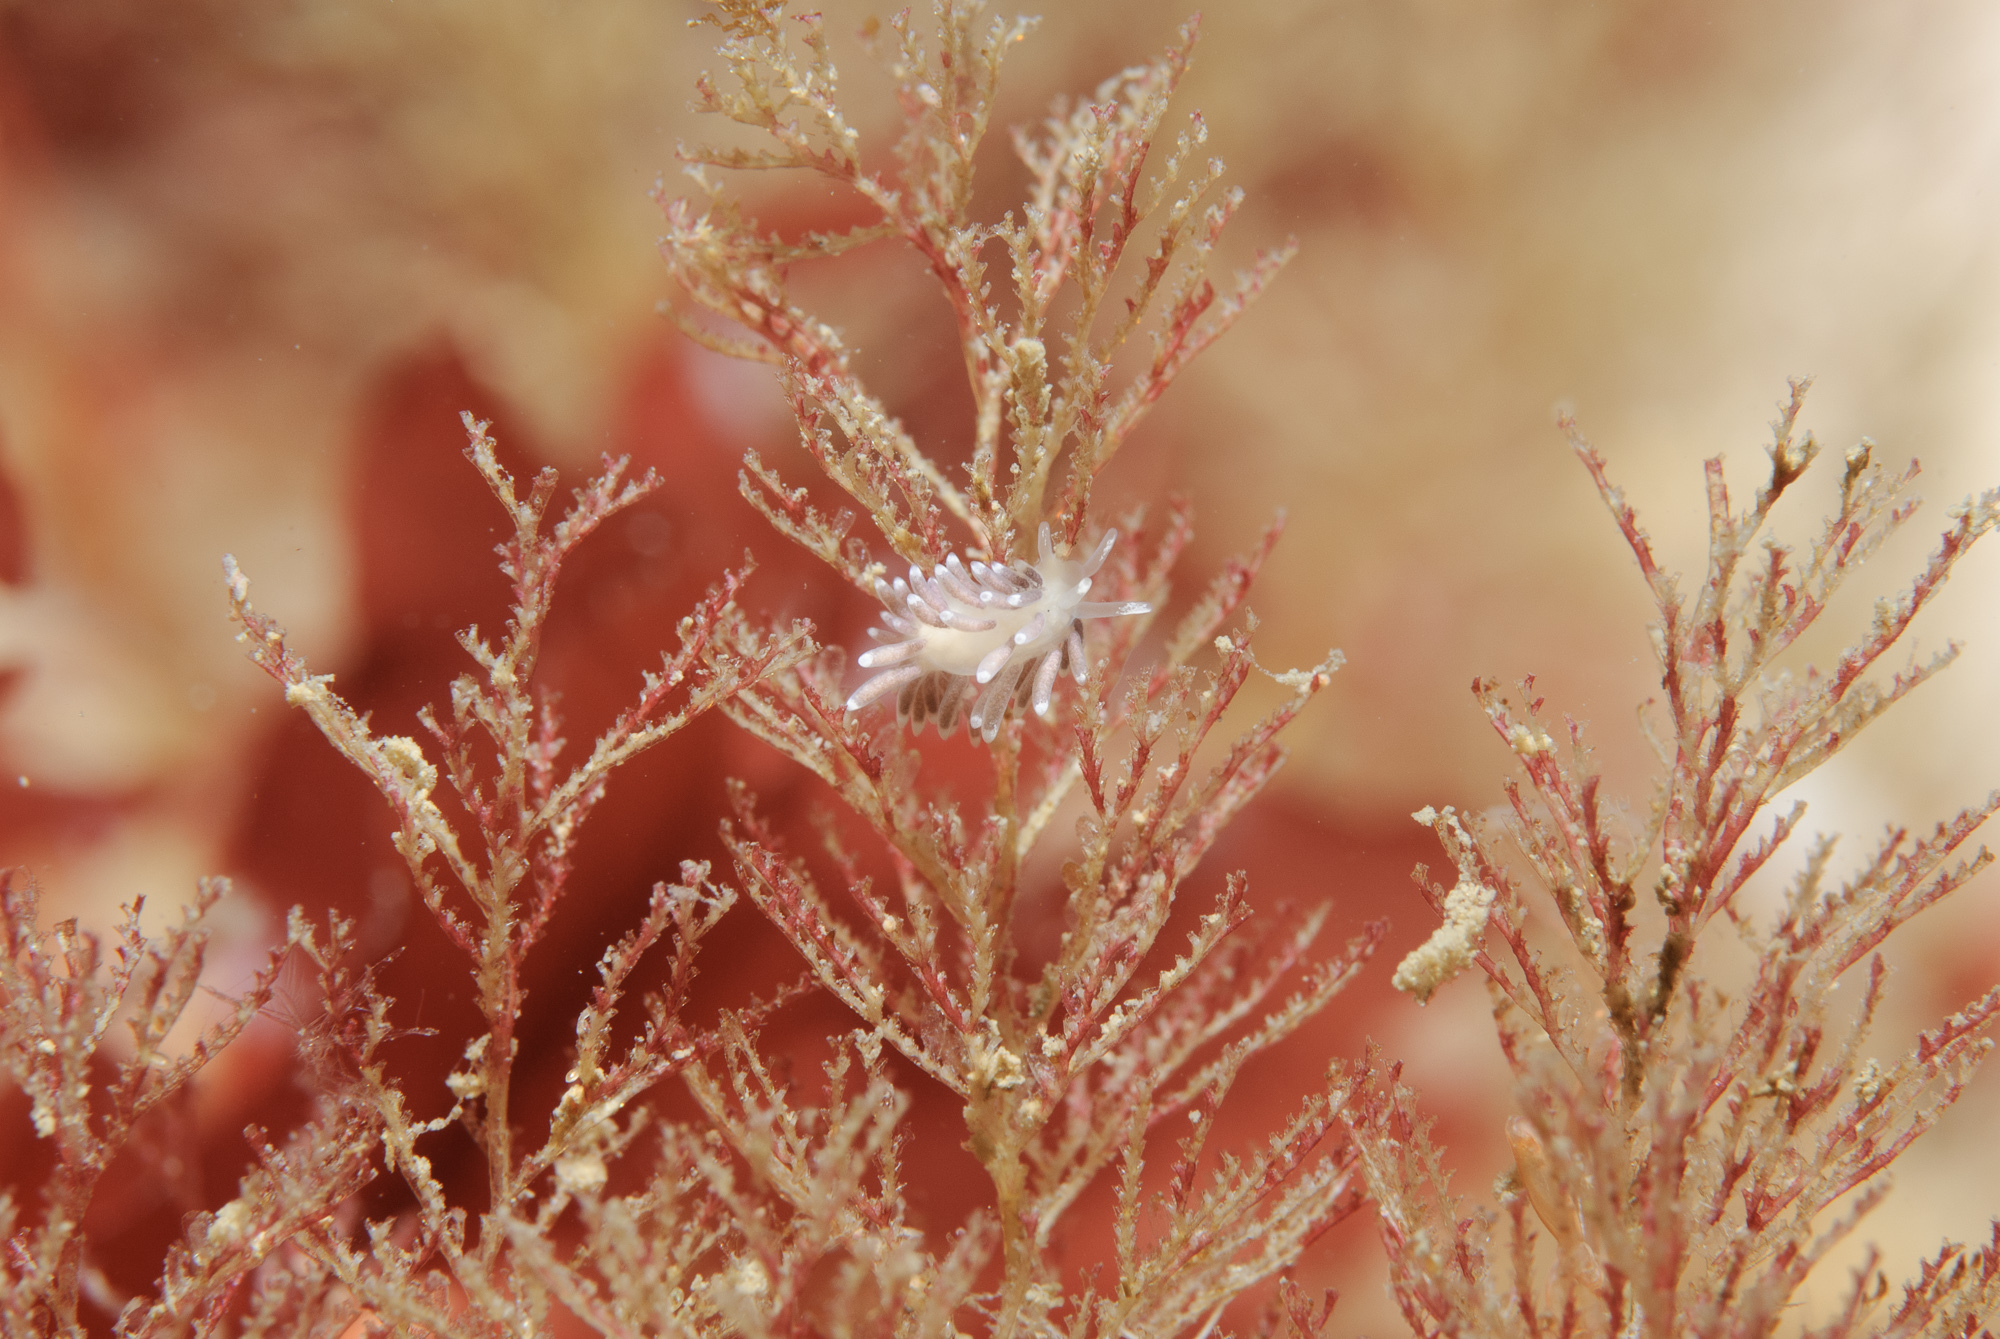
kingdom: Animalia
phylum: Mollusca
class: Gastropoda
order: Nudibranchia
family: Cuthonellidae
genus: Cuthonella
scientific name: Cuthonella concinna
